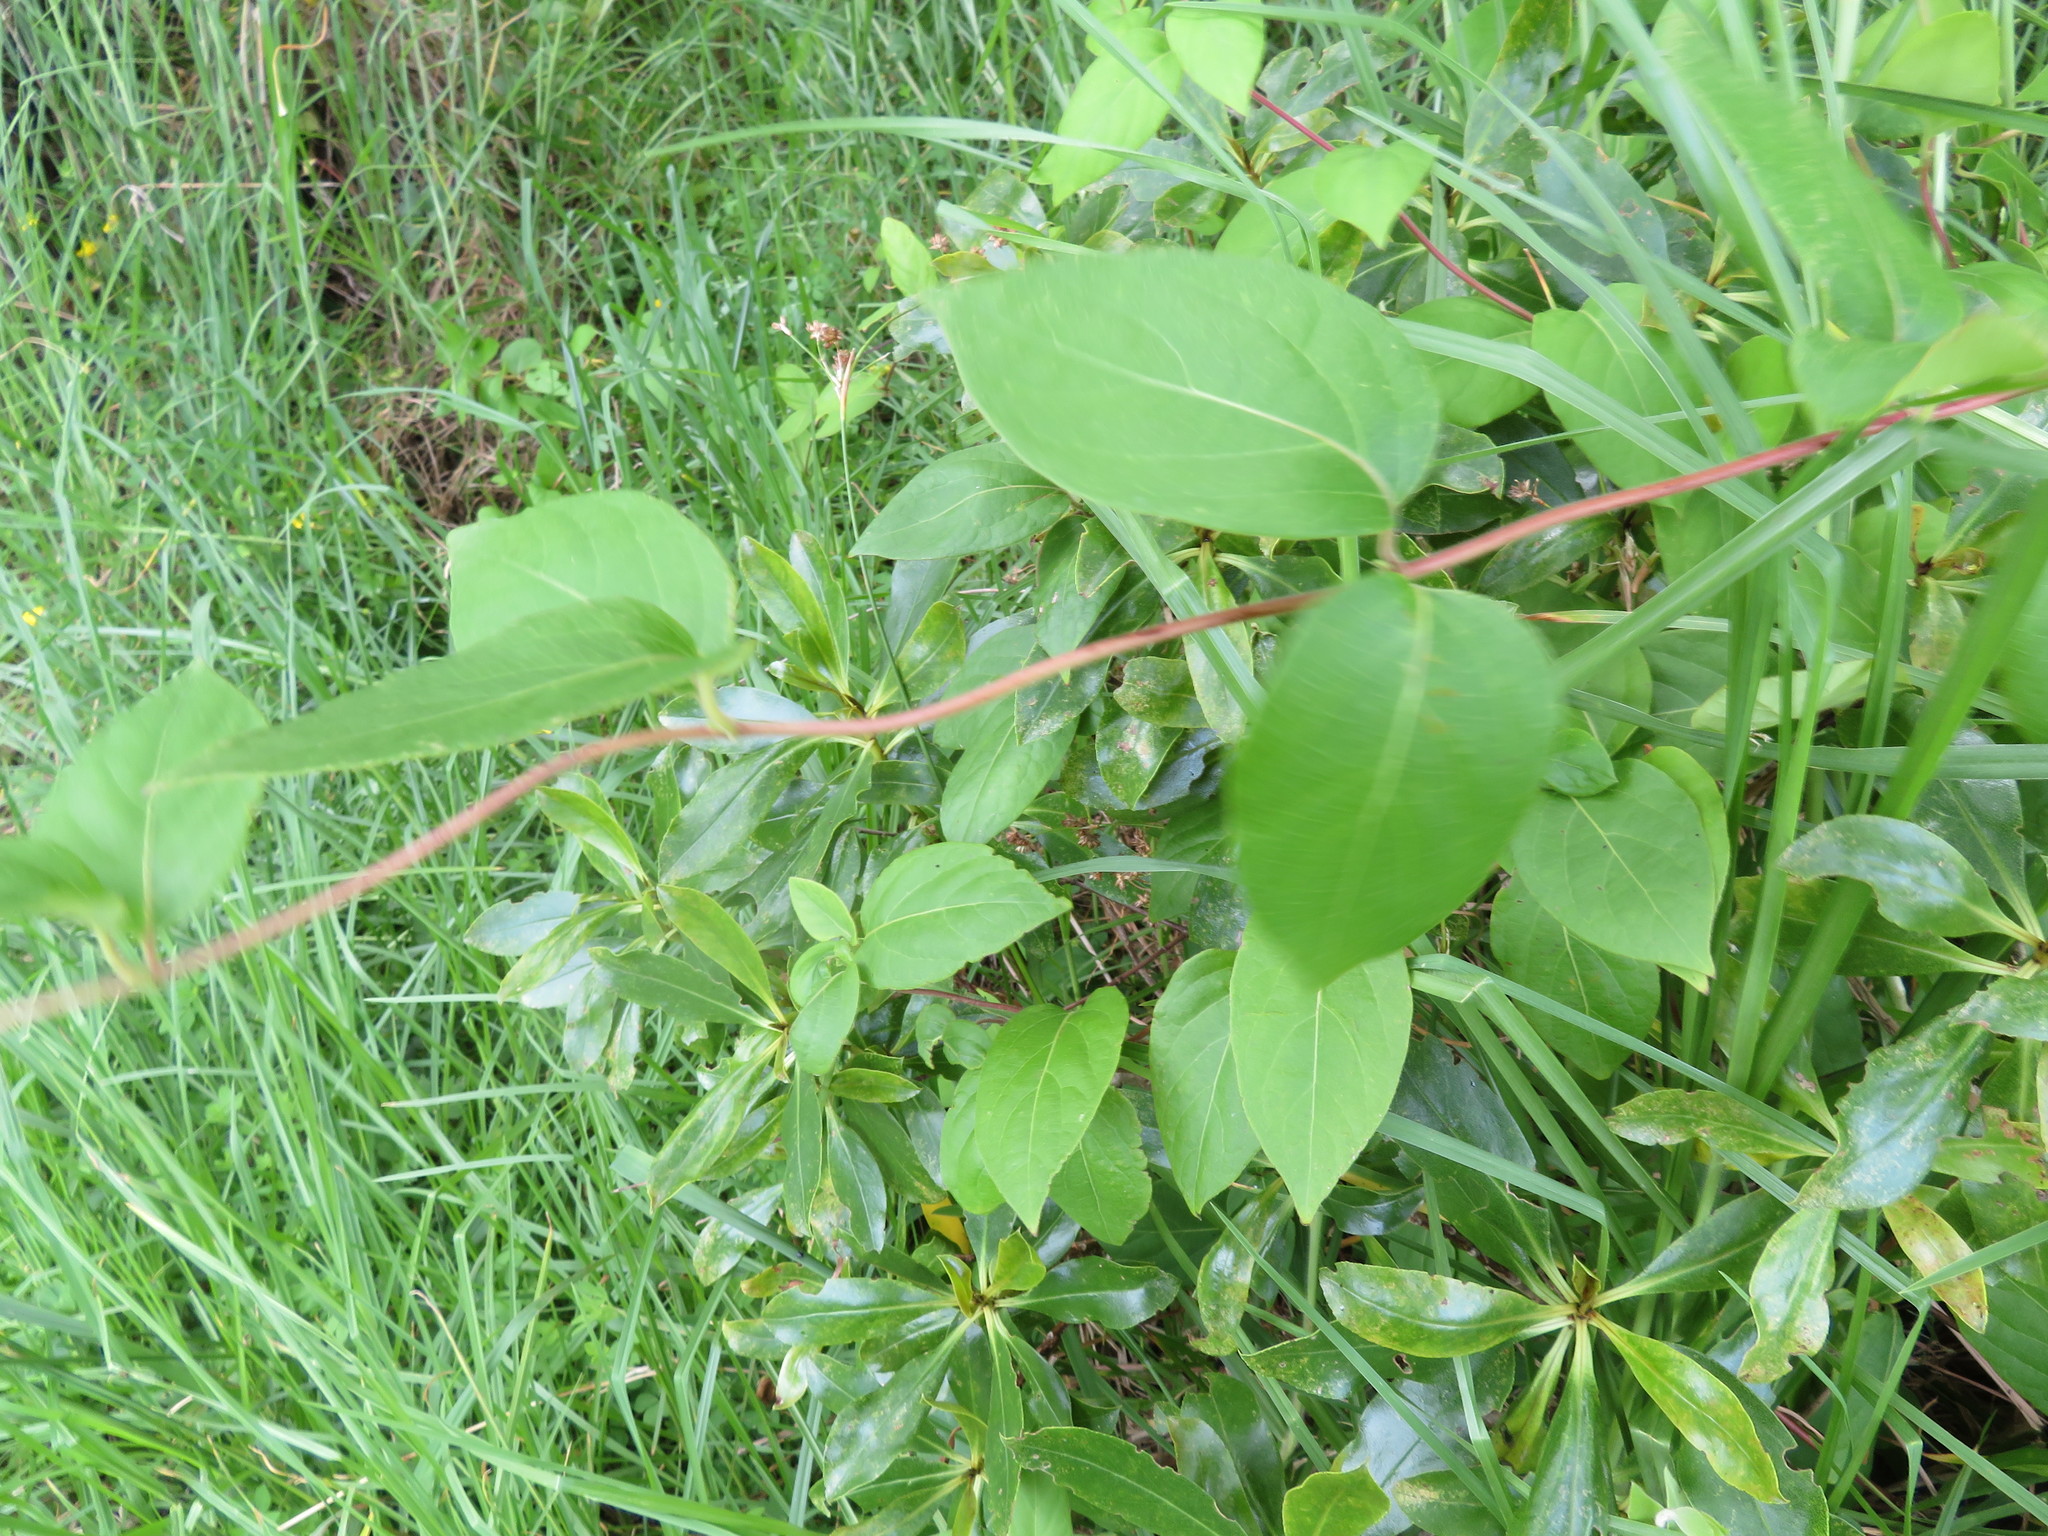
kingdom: Plantae
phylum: Tracheophyta
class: Magnoliopsida
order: Dipsacales
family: Caprifoliaceae
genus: Lonicera
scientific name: Lonicera japonica
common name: Japanese honeysuckle
